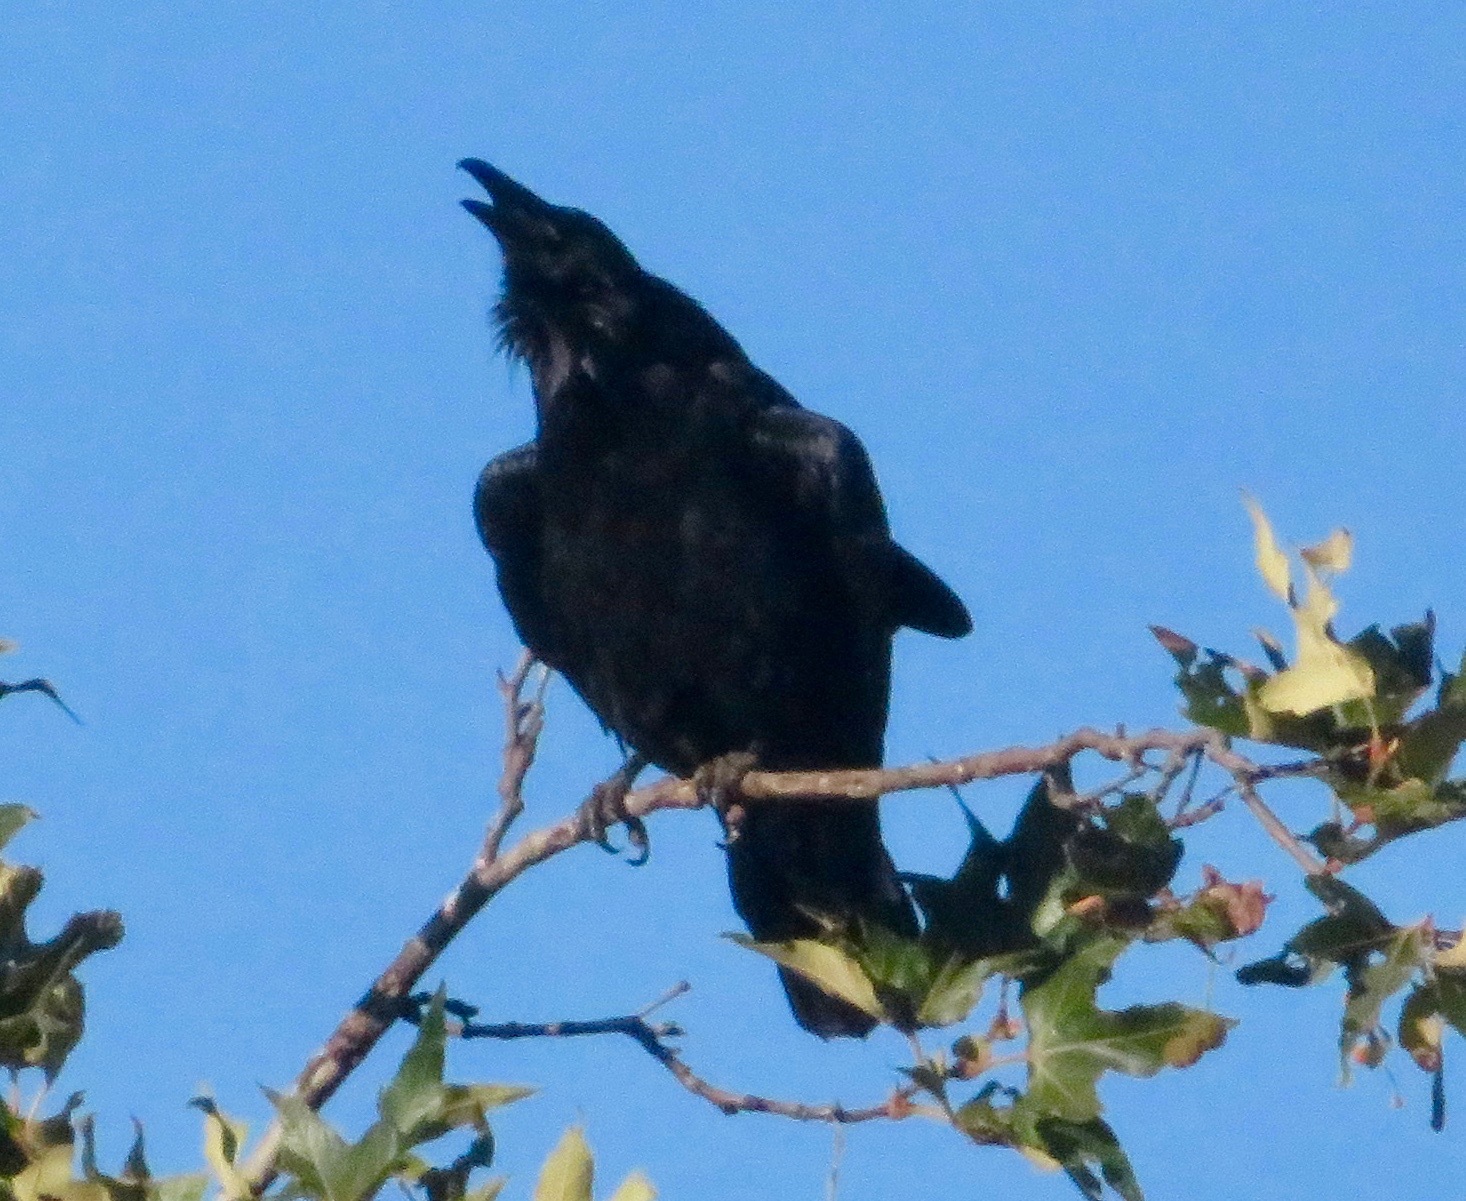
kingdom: Animalia
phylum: Chordata
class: Aves
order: Passeriformes
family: Corvidae
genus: Corvus
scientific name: Corvus corax
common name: Common raven
